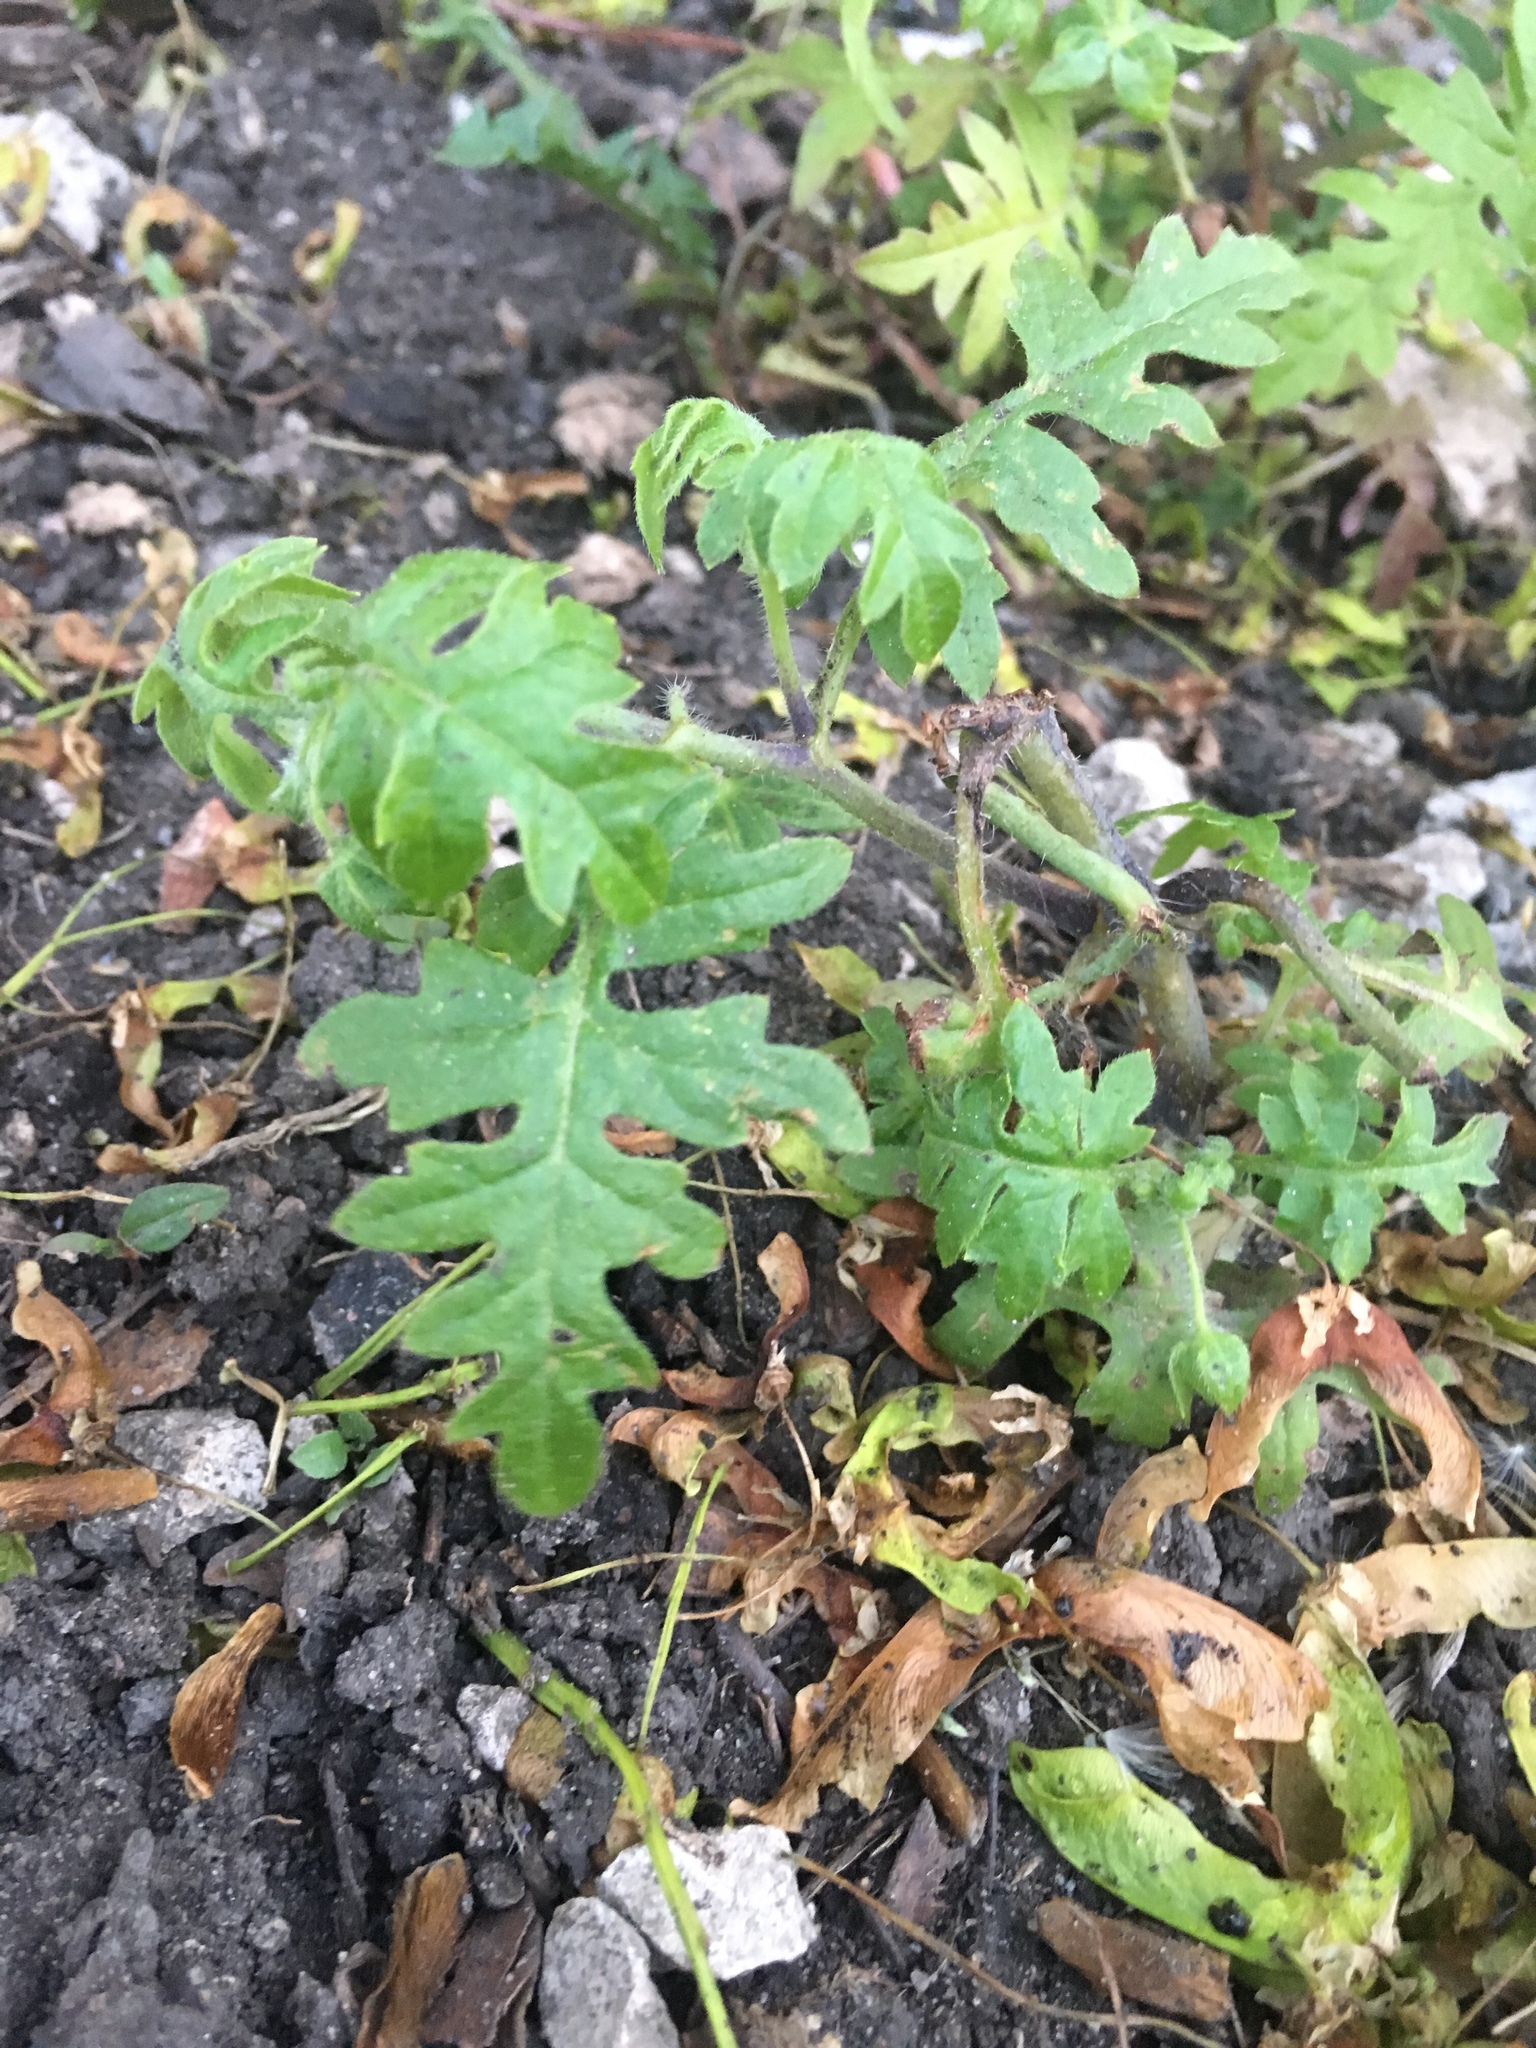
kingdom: Plantae
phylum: Tracheophyta
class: Magnoliopsida
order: Boraginales
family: Hydrophyllaceae
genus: Ellisia
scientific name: Ellisia nyctelea
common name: Aunt lucy
